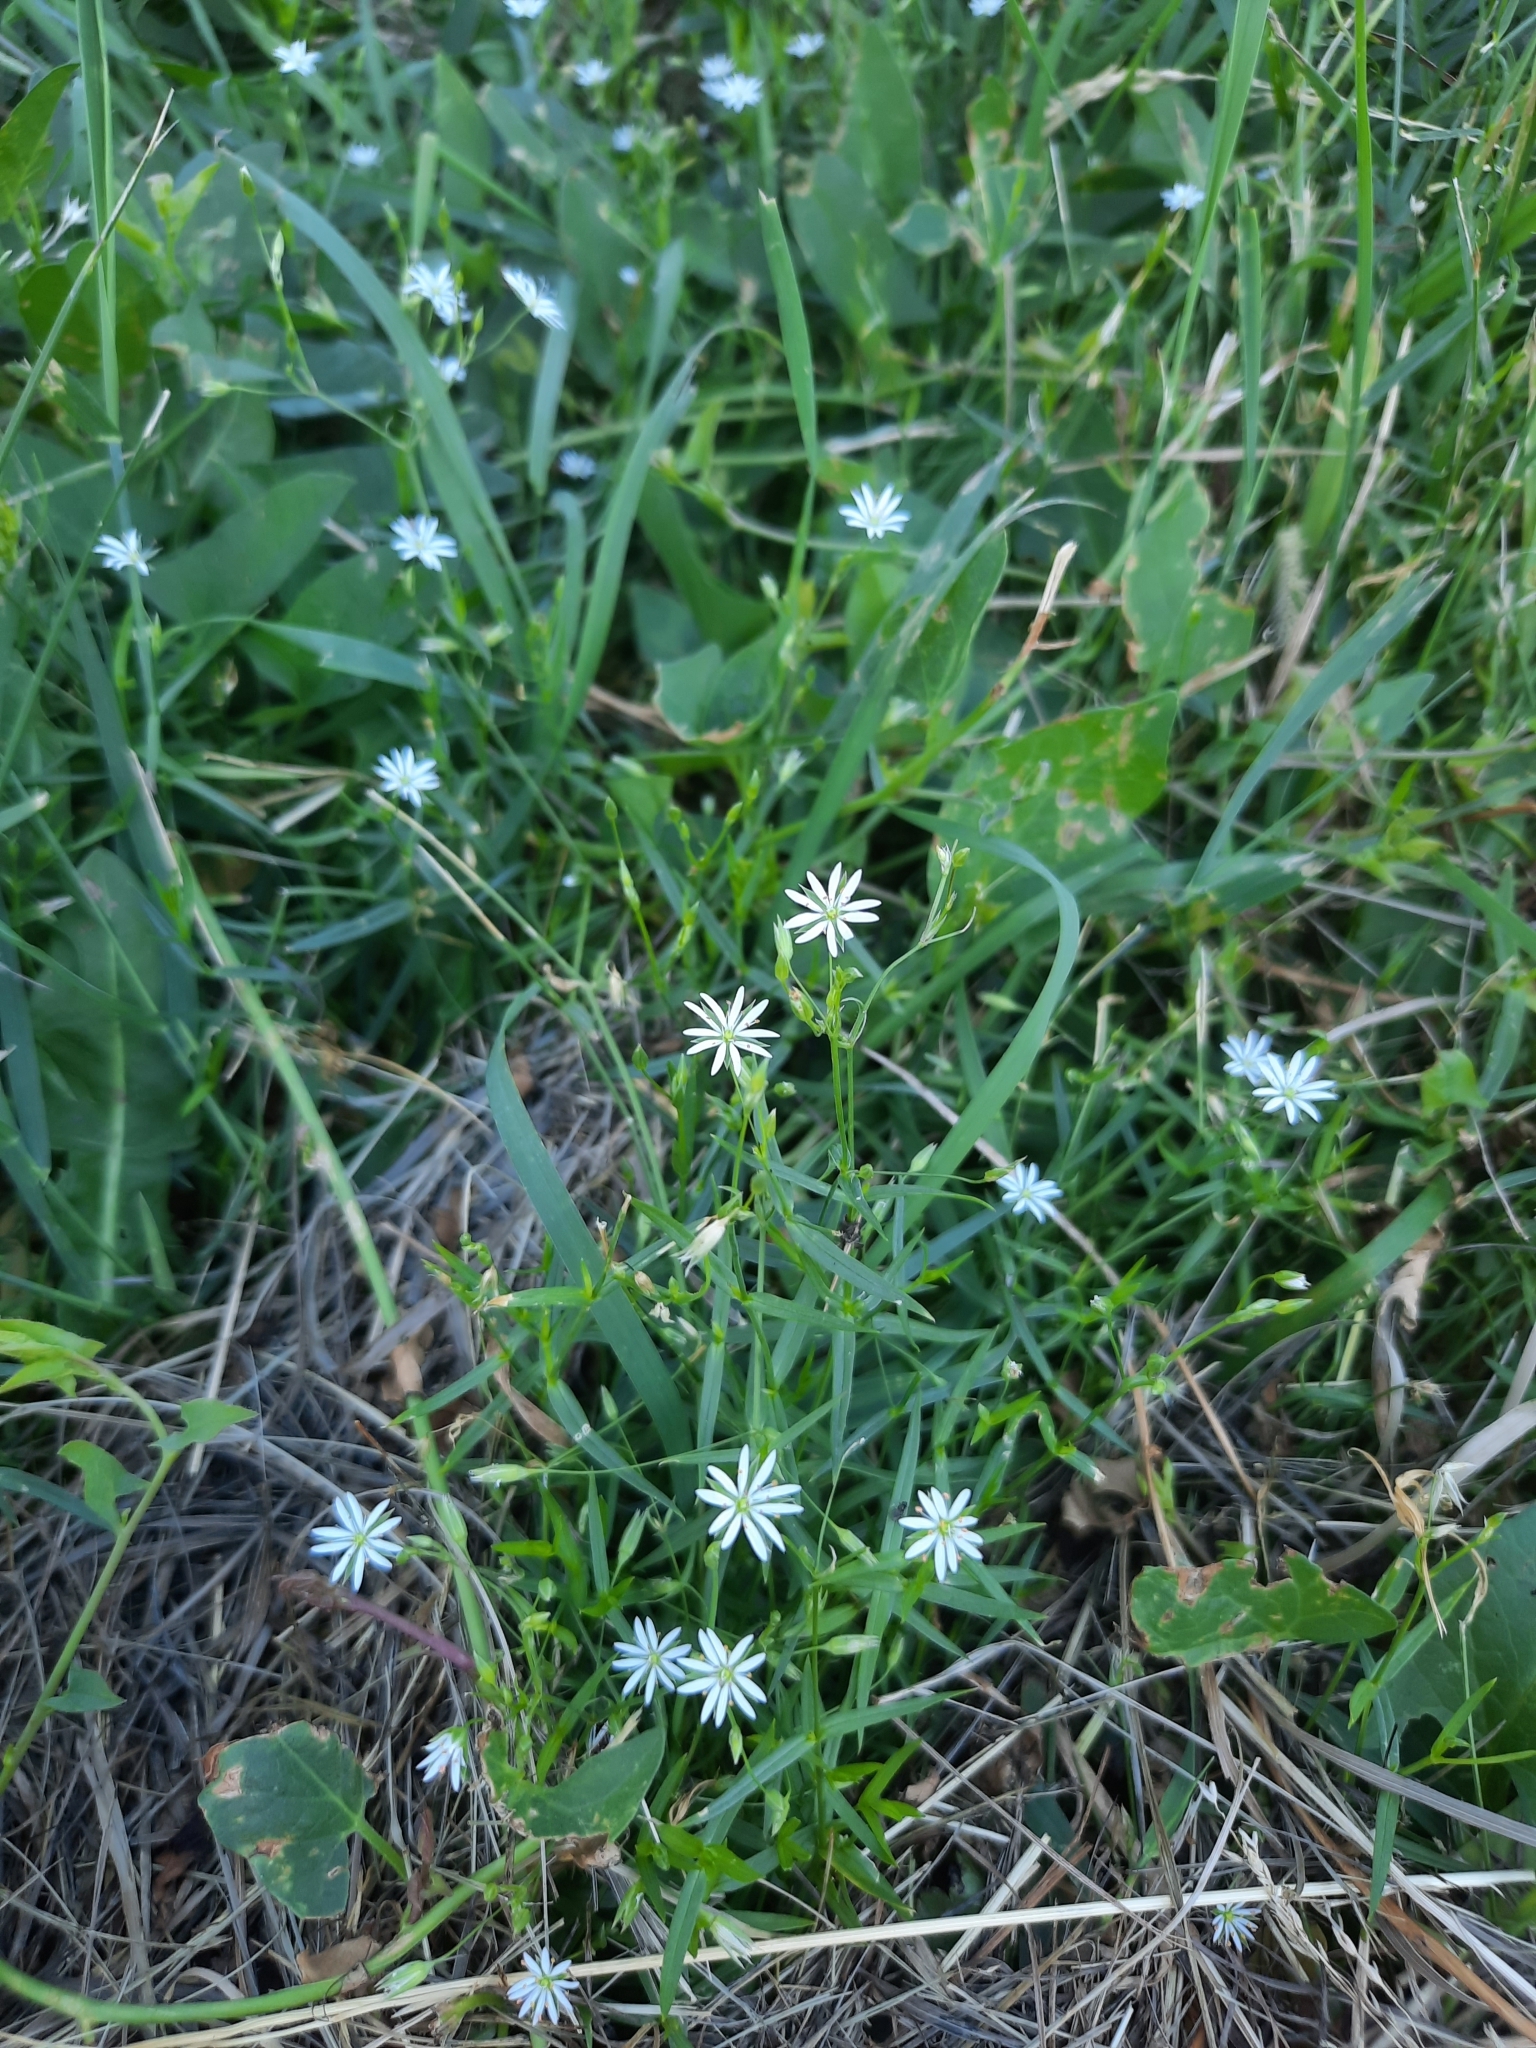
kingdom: Plantae
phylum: Tracheophyta
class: Magnoliopsida
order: Caryophyllales
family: Caryophyllaceae
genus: Stellaria
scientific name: Stellaria graminea
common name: Grass-like starwort
